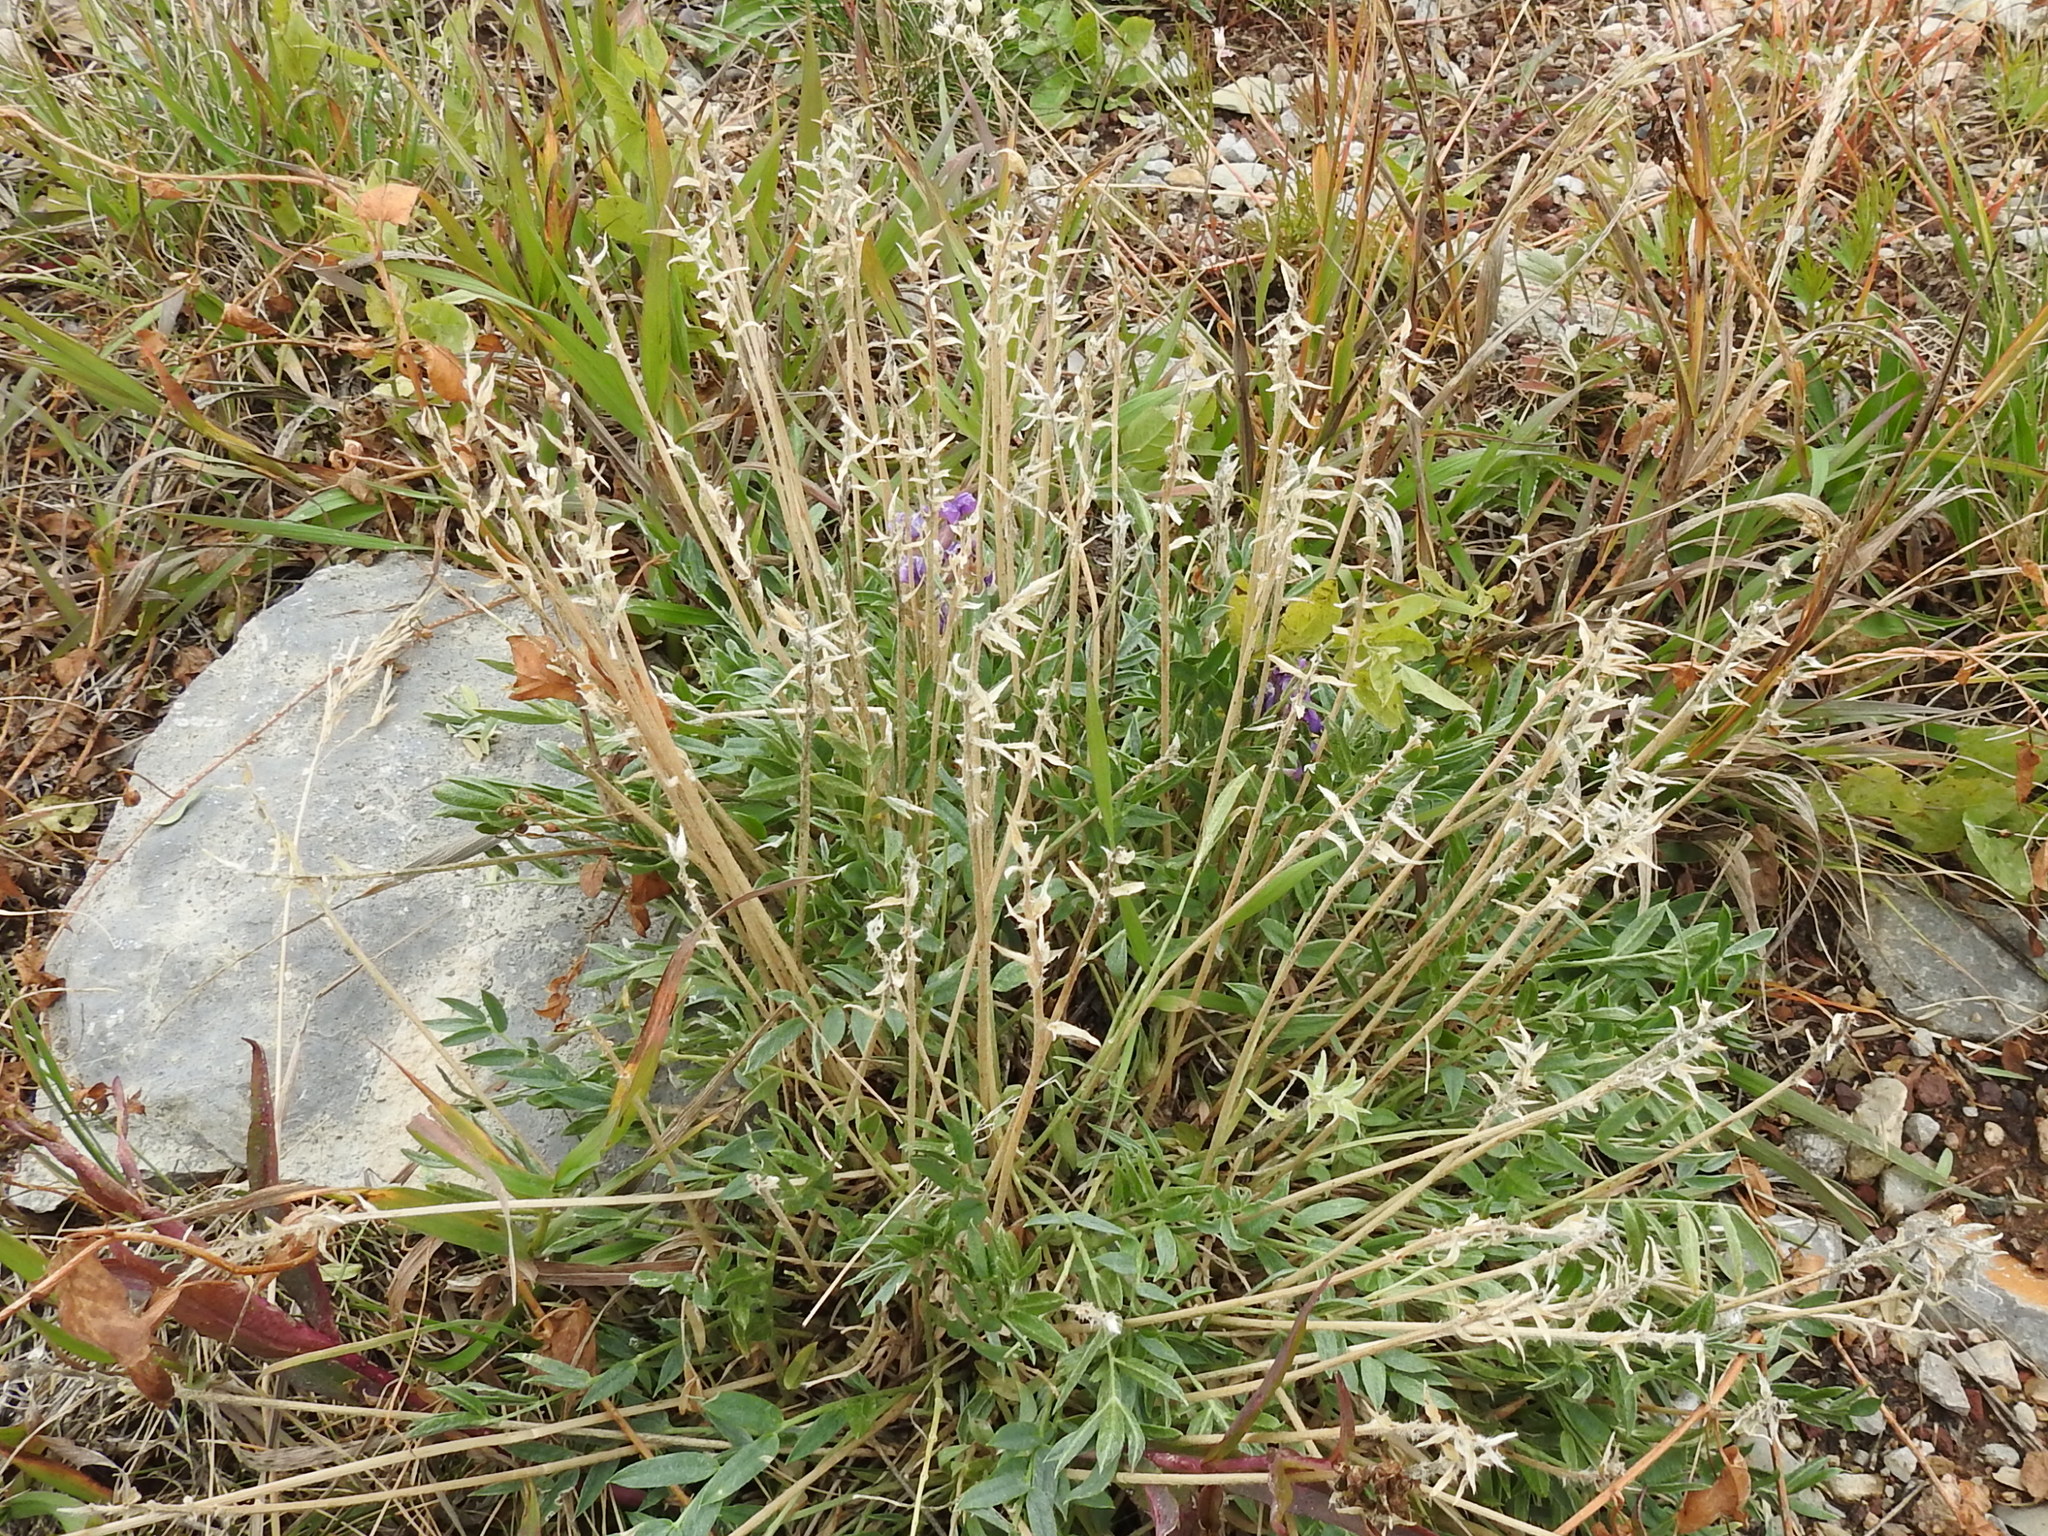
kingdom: Plantae
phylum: Tracheophyta
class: Magnoliopsida
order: Fabales
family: Fabaceae
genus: Oxytropis
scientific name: Oxytropis lambertii
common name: Purple locoweed
